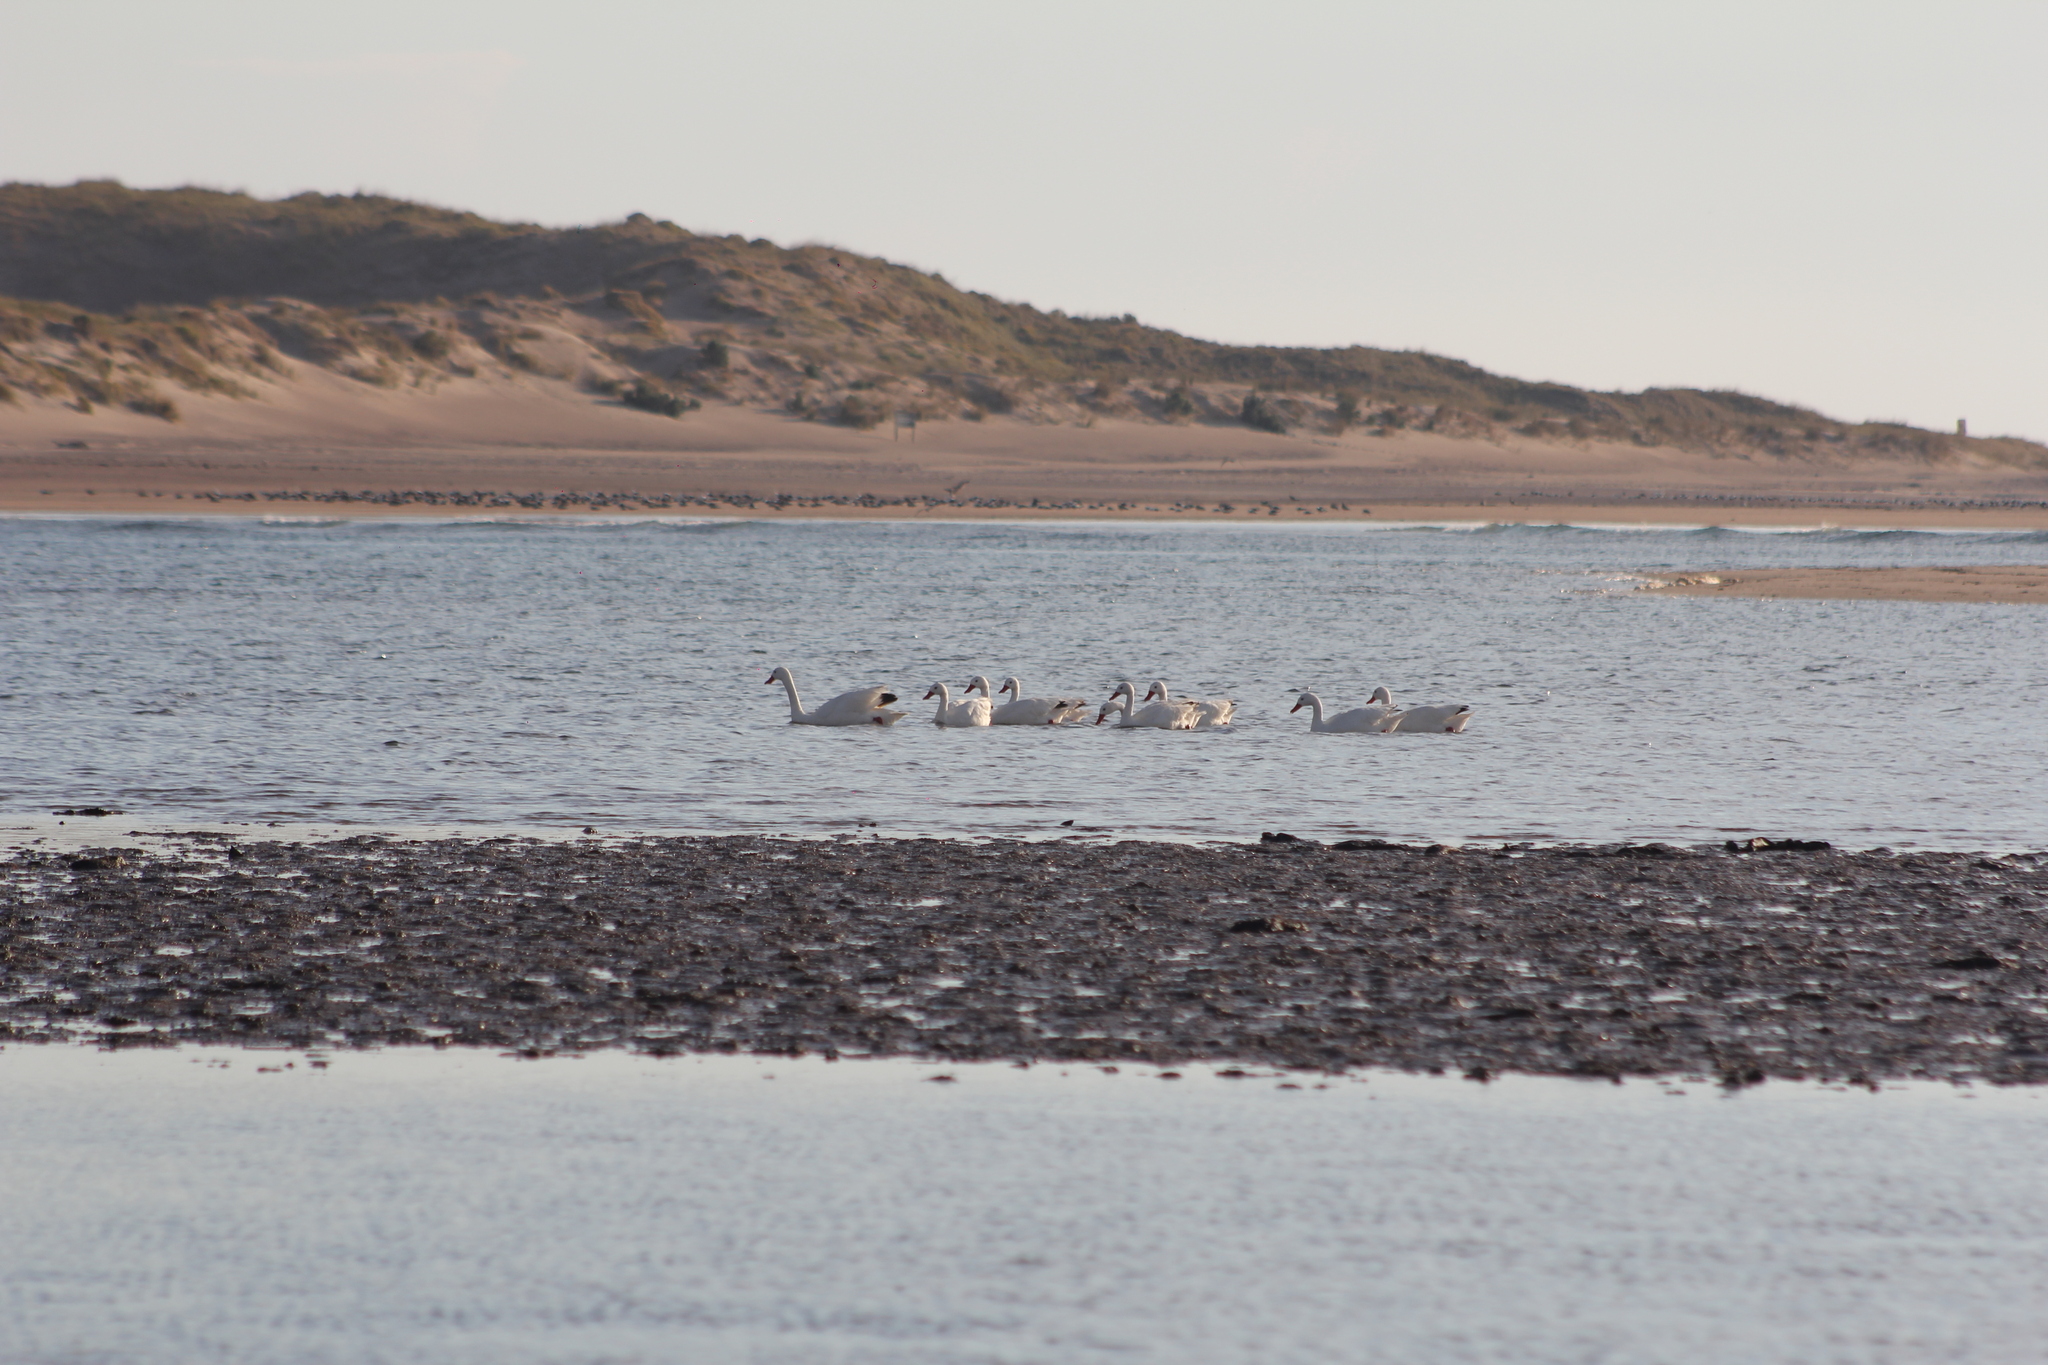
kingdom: Animalia
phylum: Chordata
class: Aves
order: Anseriformes
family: Anatidae
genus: Coscoroba
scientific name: Coscoroba coscoroba
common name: Coscoroba swan
